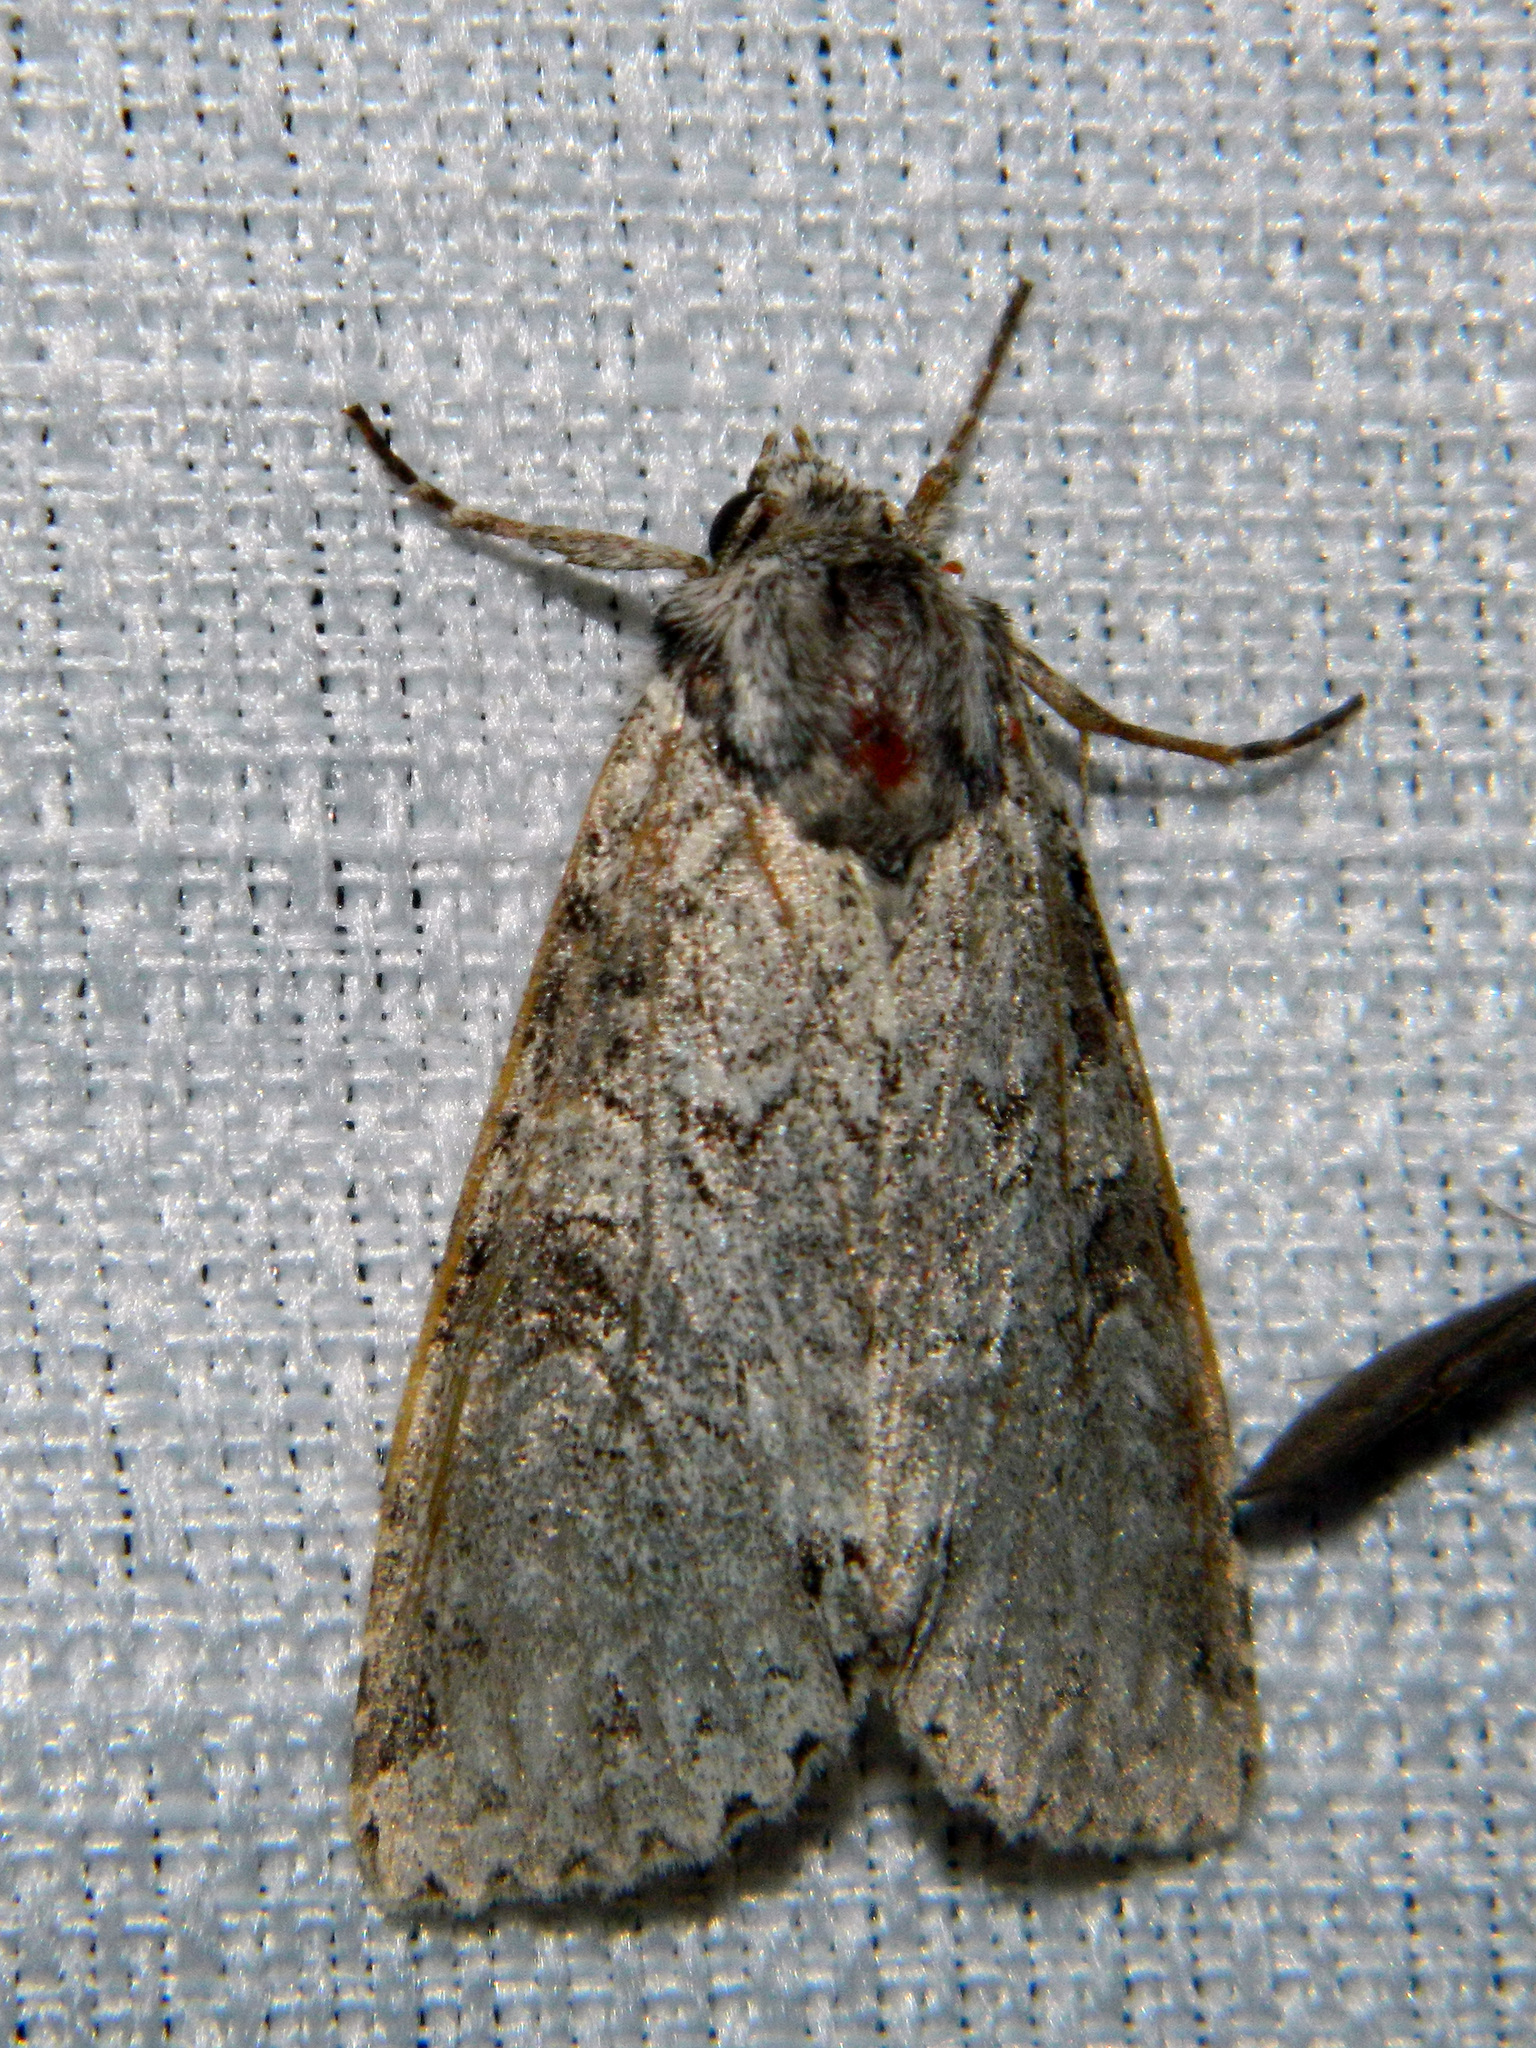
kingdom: Animalia
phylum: Arthropoda
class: Insecta
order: Lepidoptera
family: Noctuidae
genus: Polia
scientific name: Polia nimbosa
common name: Stormy arches
